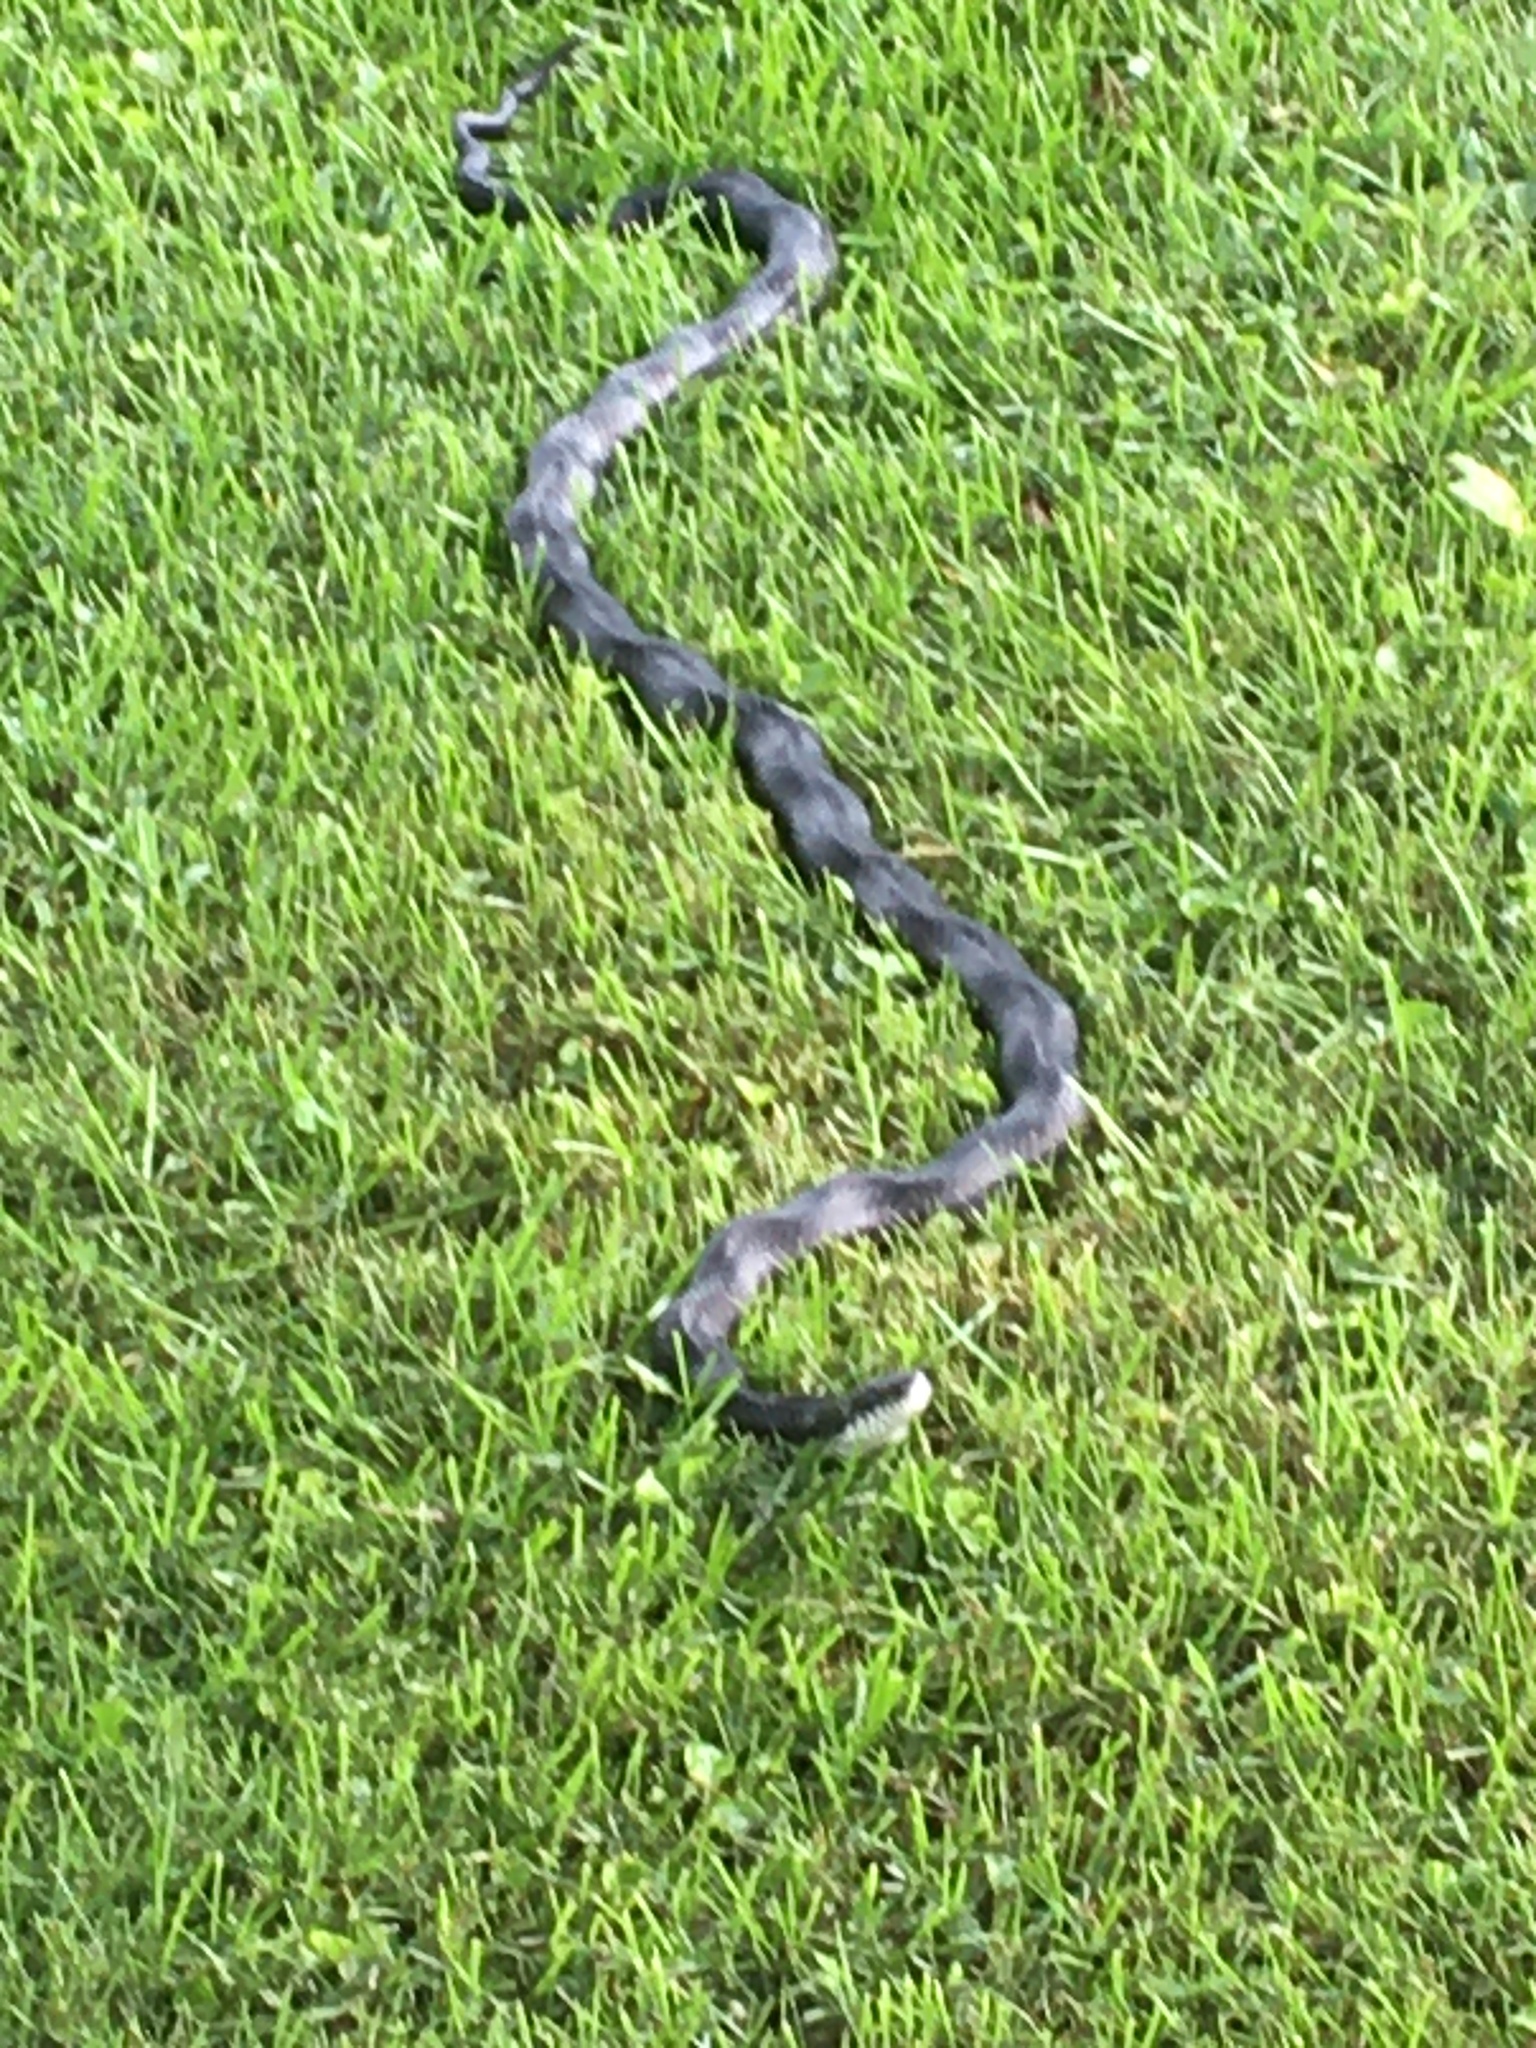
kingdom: Animalia
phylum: Chordata
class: Squamata
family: Colubridae
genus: Pantherophis
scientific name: Pantherophis spiloides
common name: Gray rat snake
